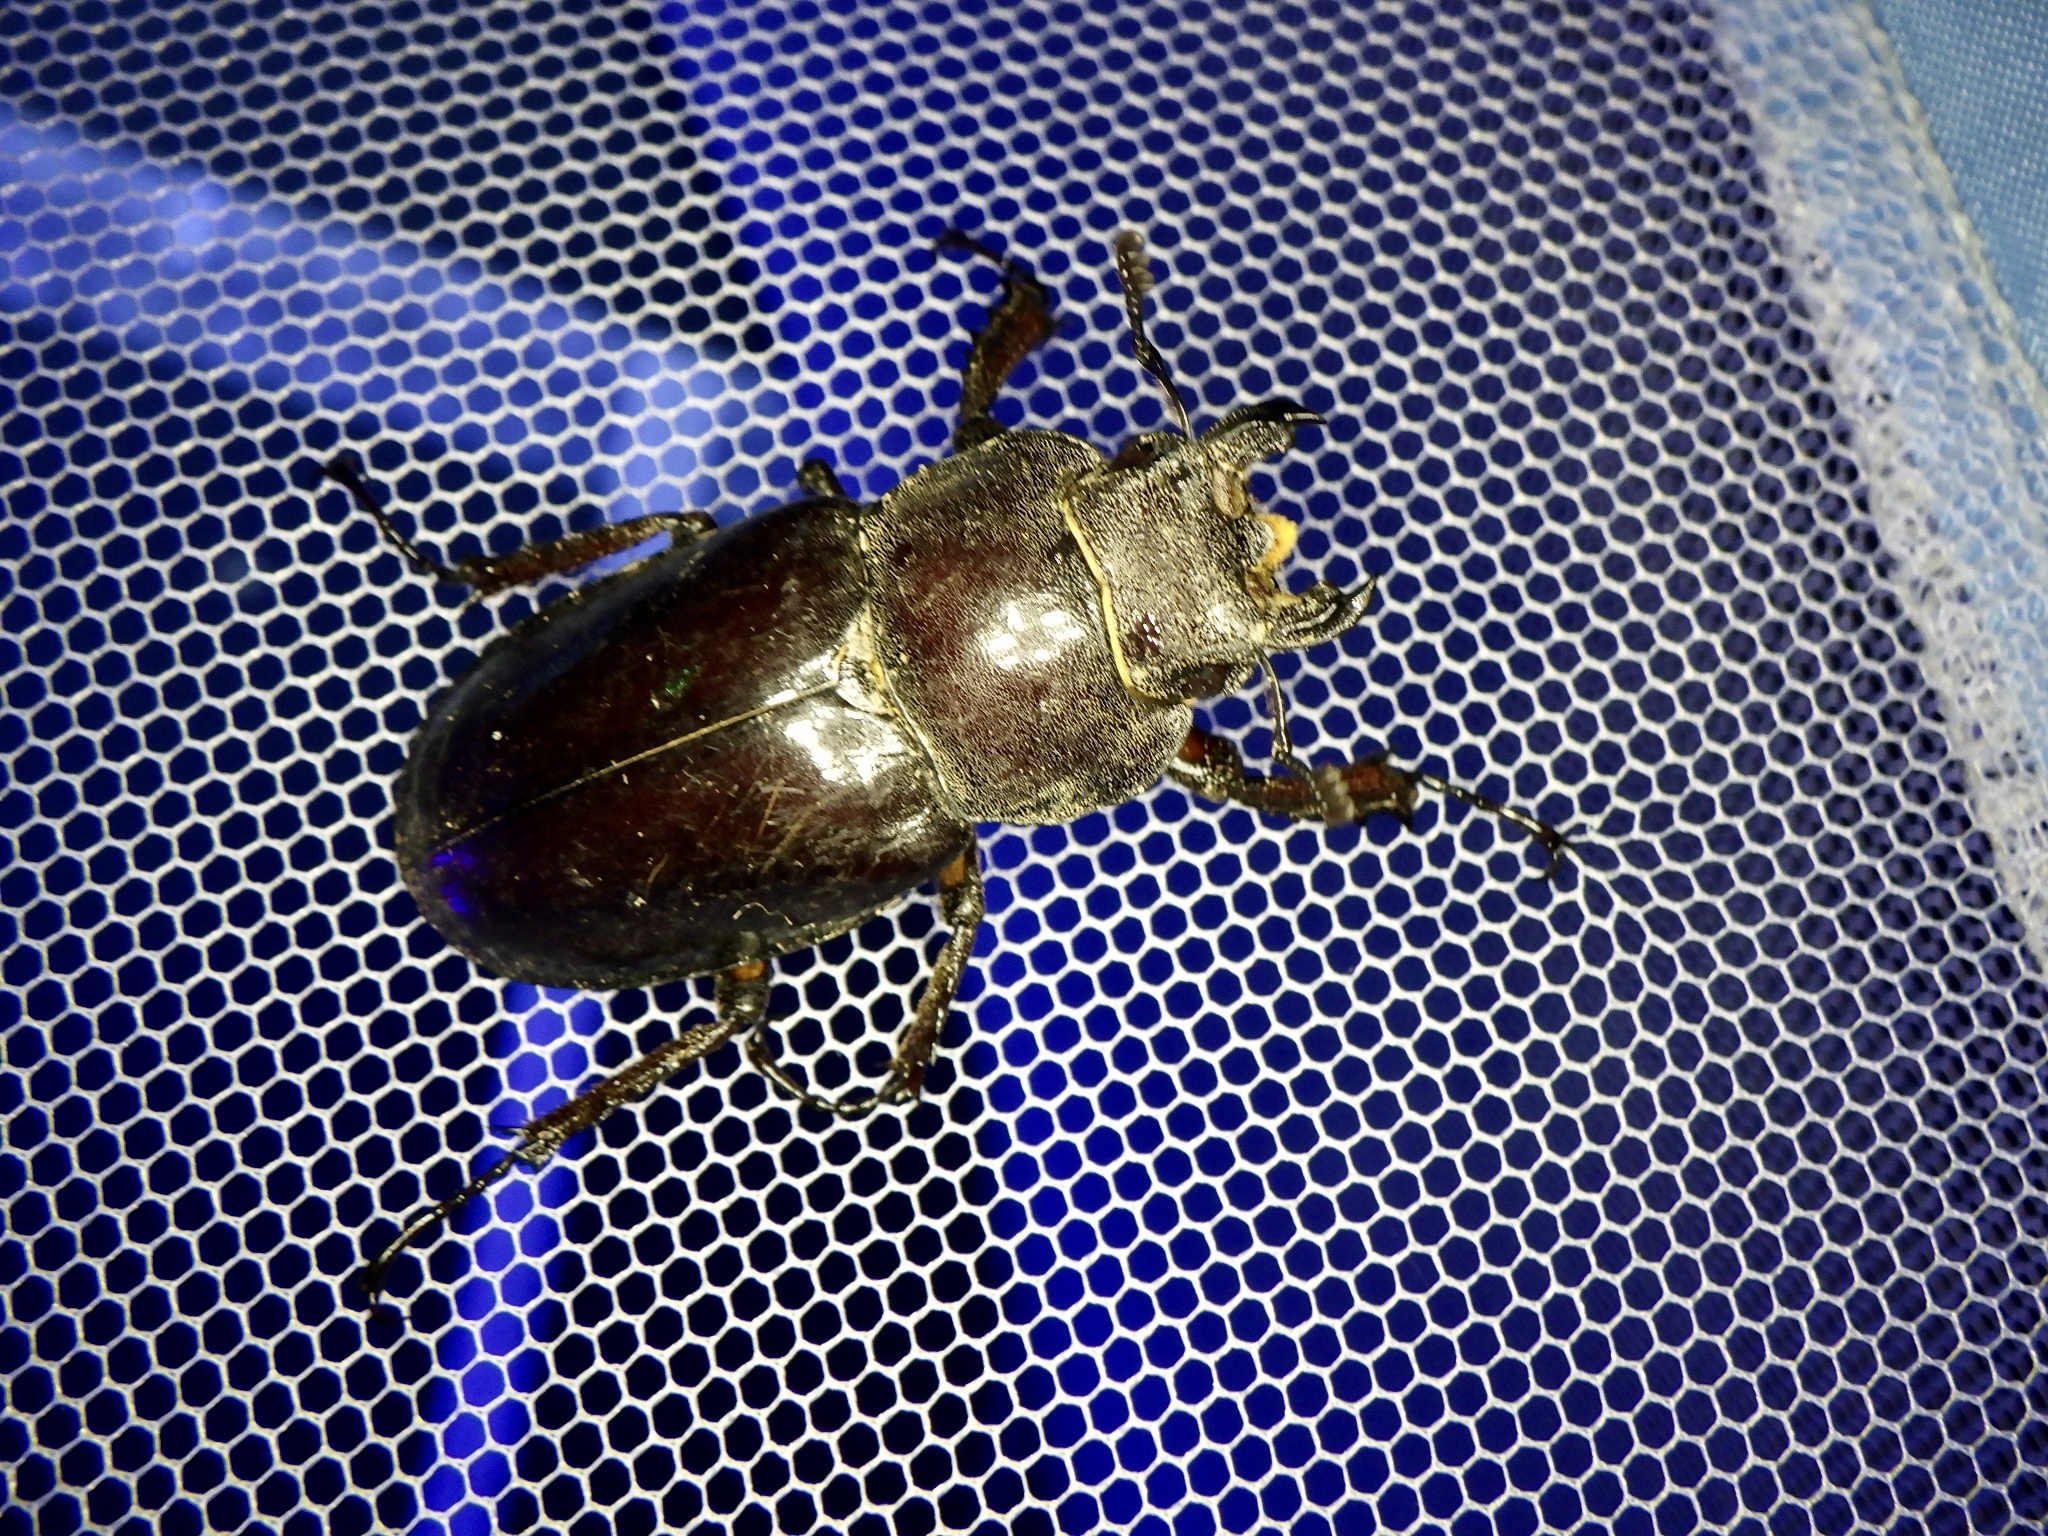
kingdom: Animalia
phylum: Arthropoda
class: Insecta
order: Coleoptera
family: Lucanidae
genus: Lucanus
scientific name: Lucanus maculifemoratus
